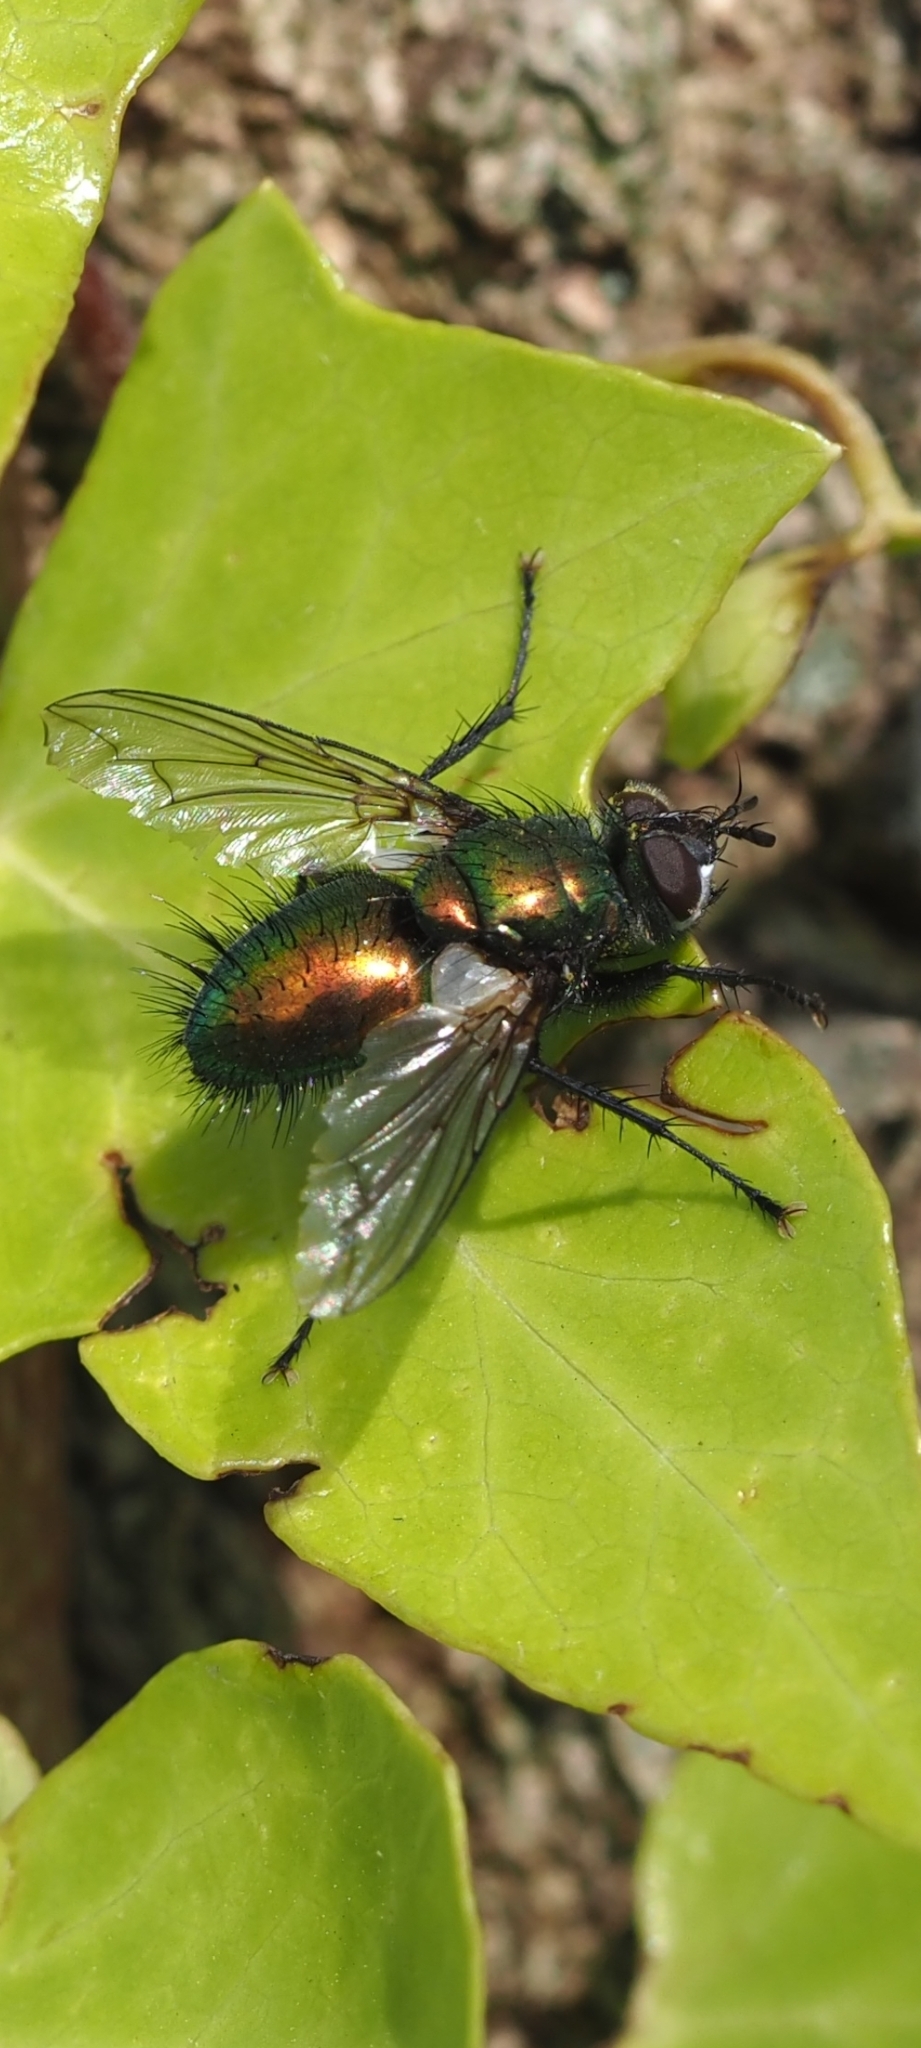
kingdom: Animalia
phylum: Arthropoda
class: Insecta
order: Diptera
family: Tachinidae
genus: Gymnocheta
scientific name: Gymnocheta viridis
